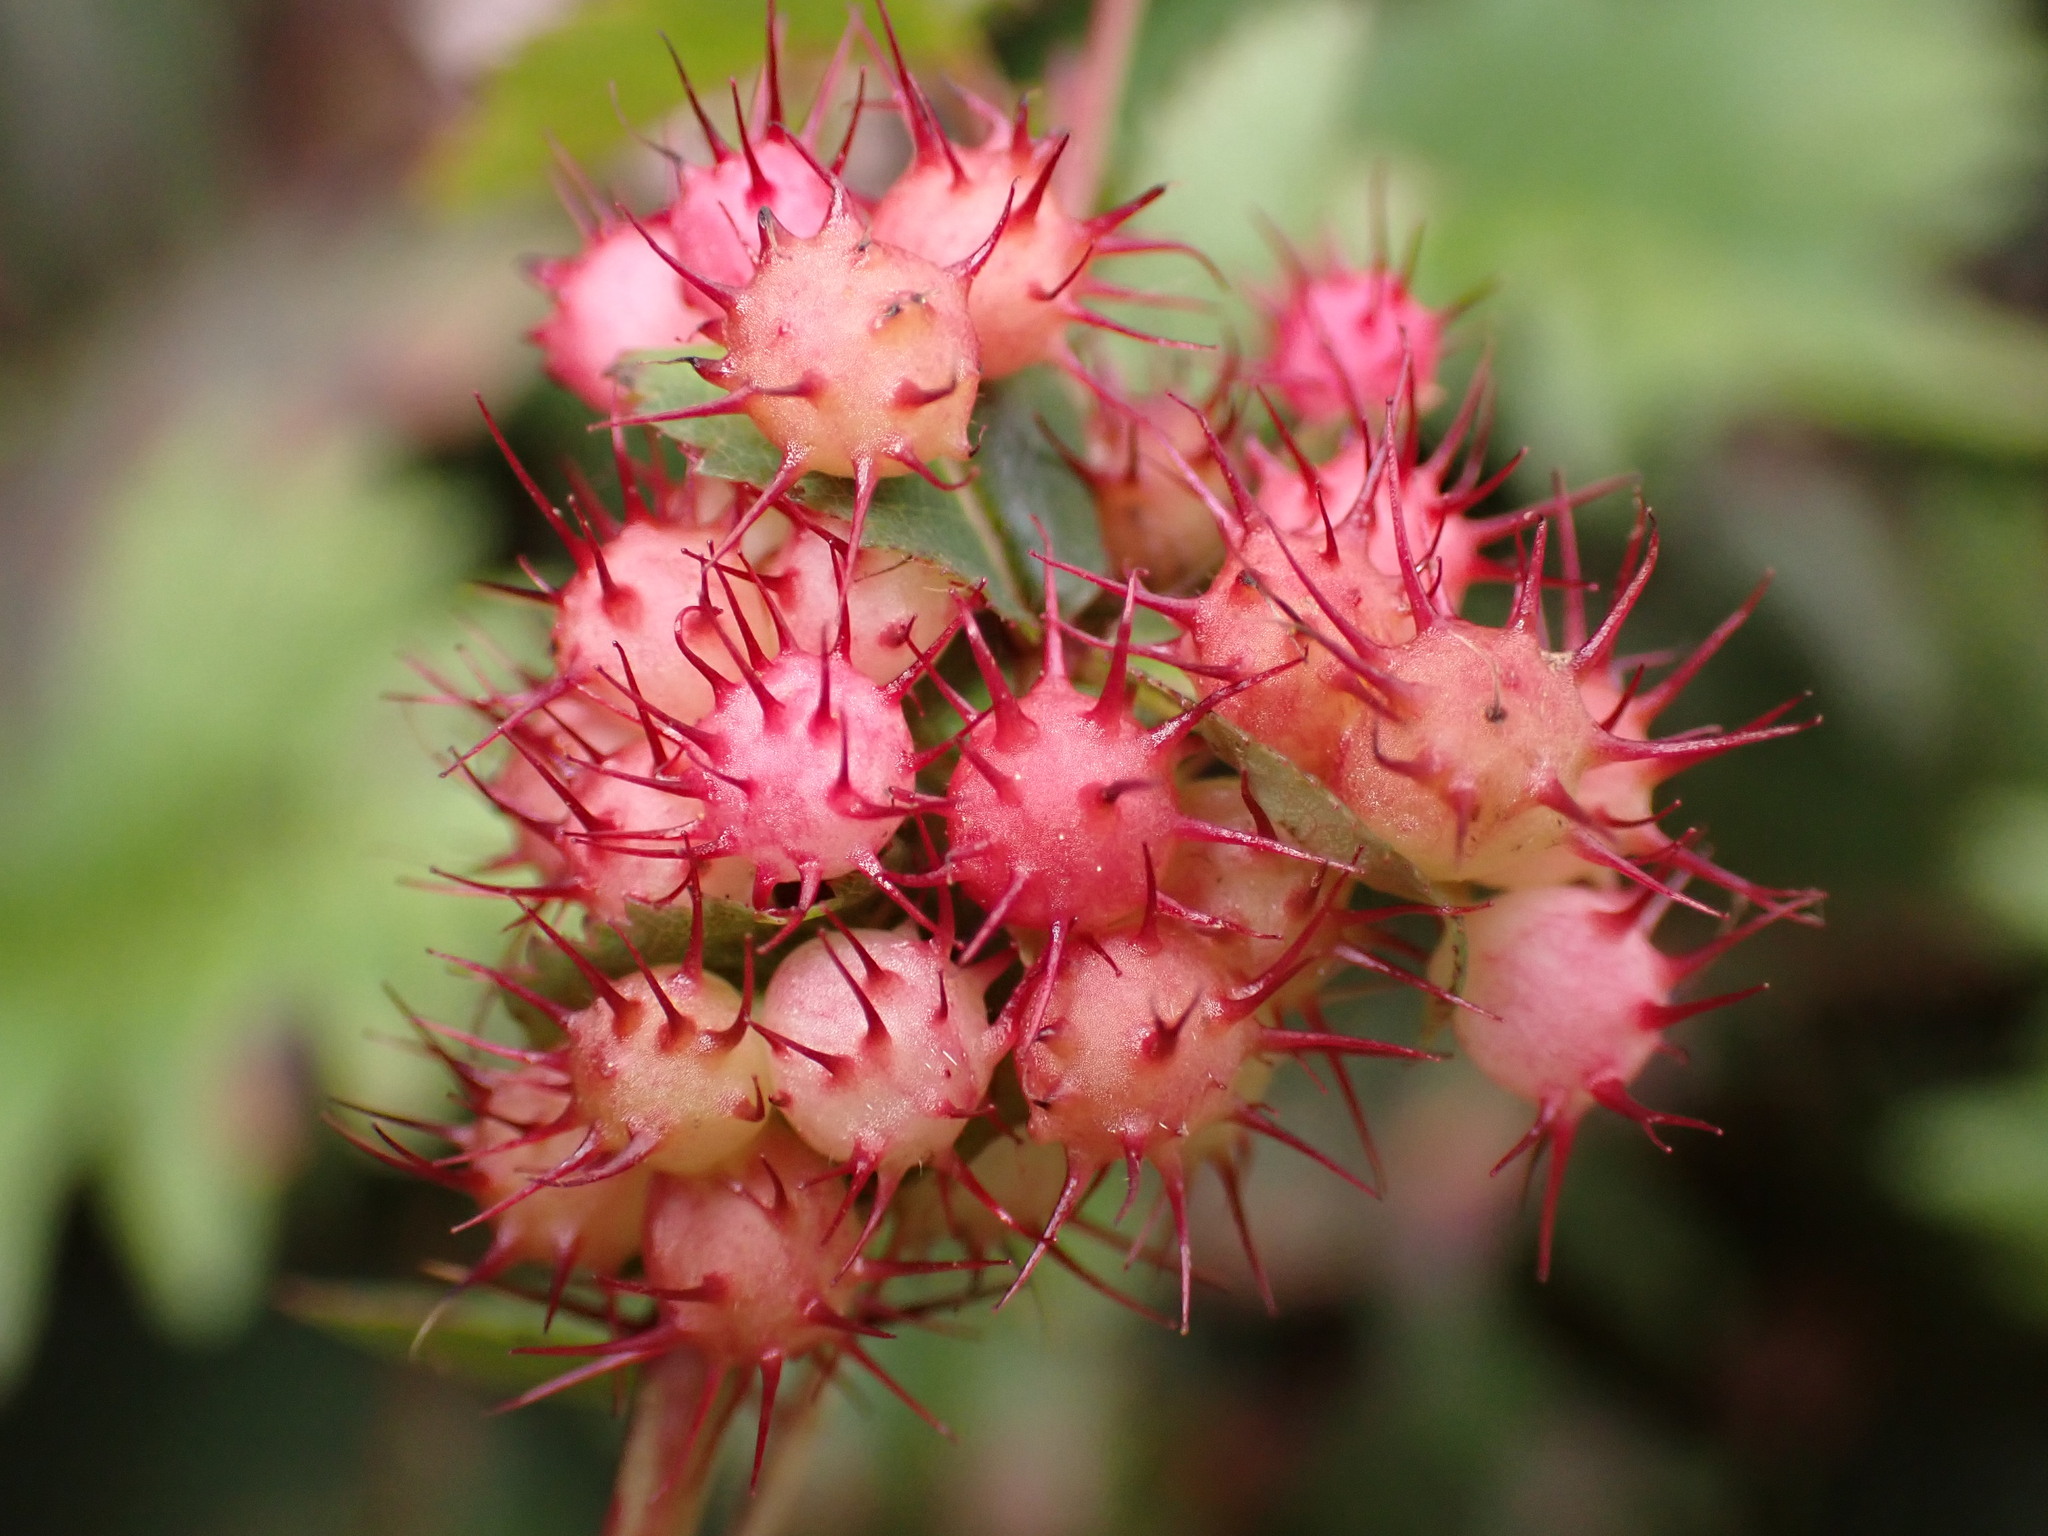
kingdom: Animalia
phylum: Arthropoda
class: Insecta
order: Hymenoptera
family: Cynipidae
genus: Diplolepis
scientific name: Diplolepis polita
